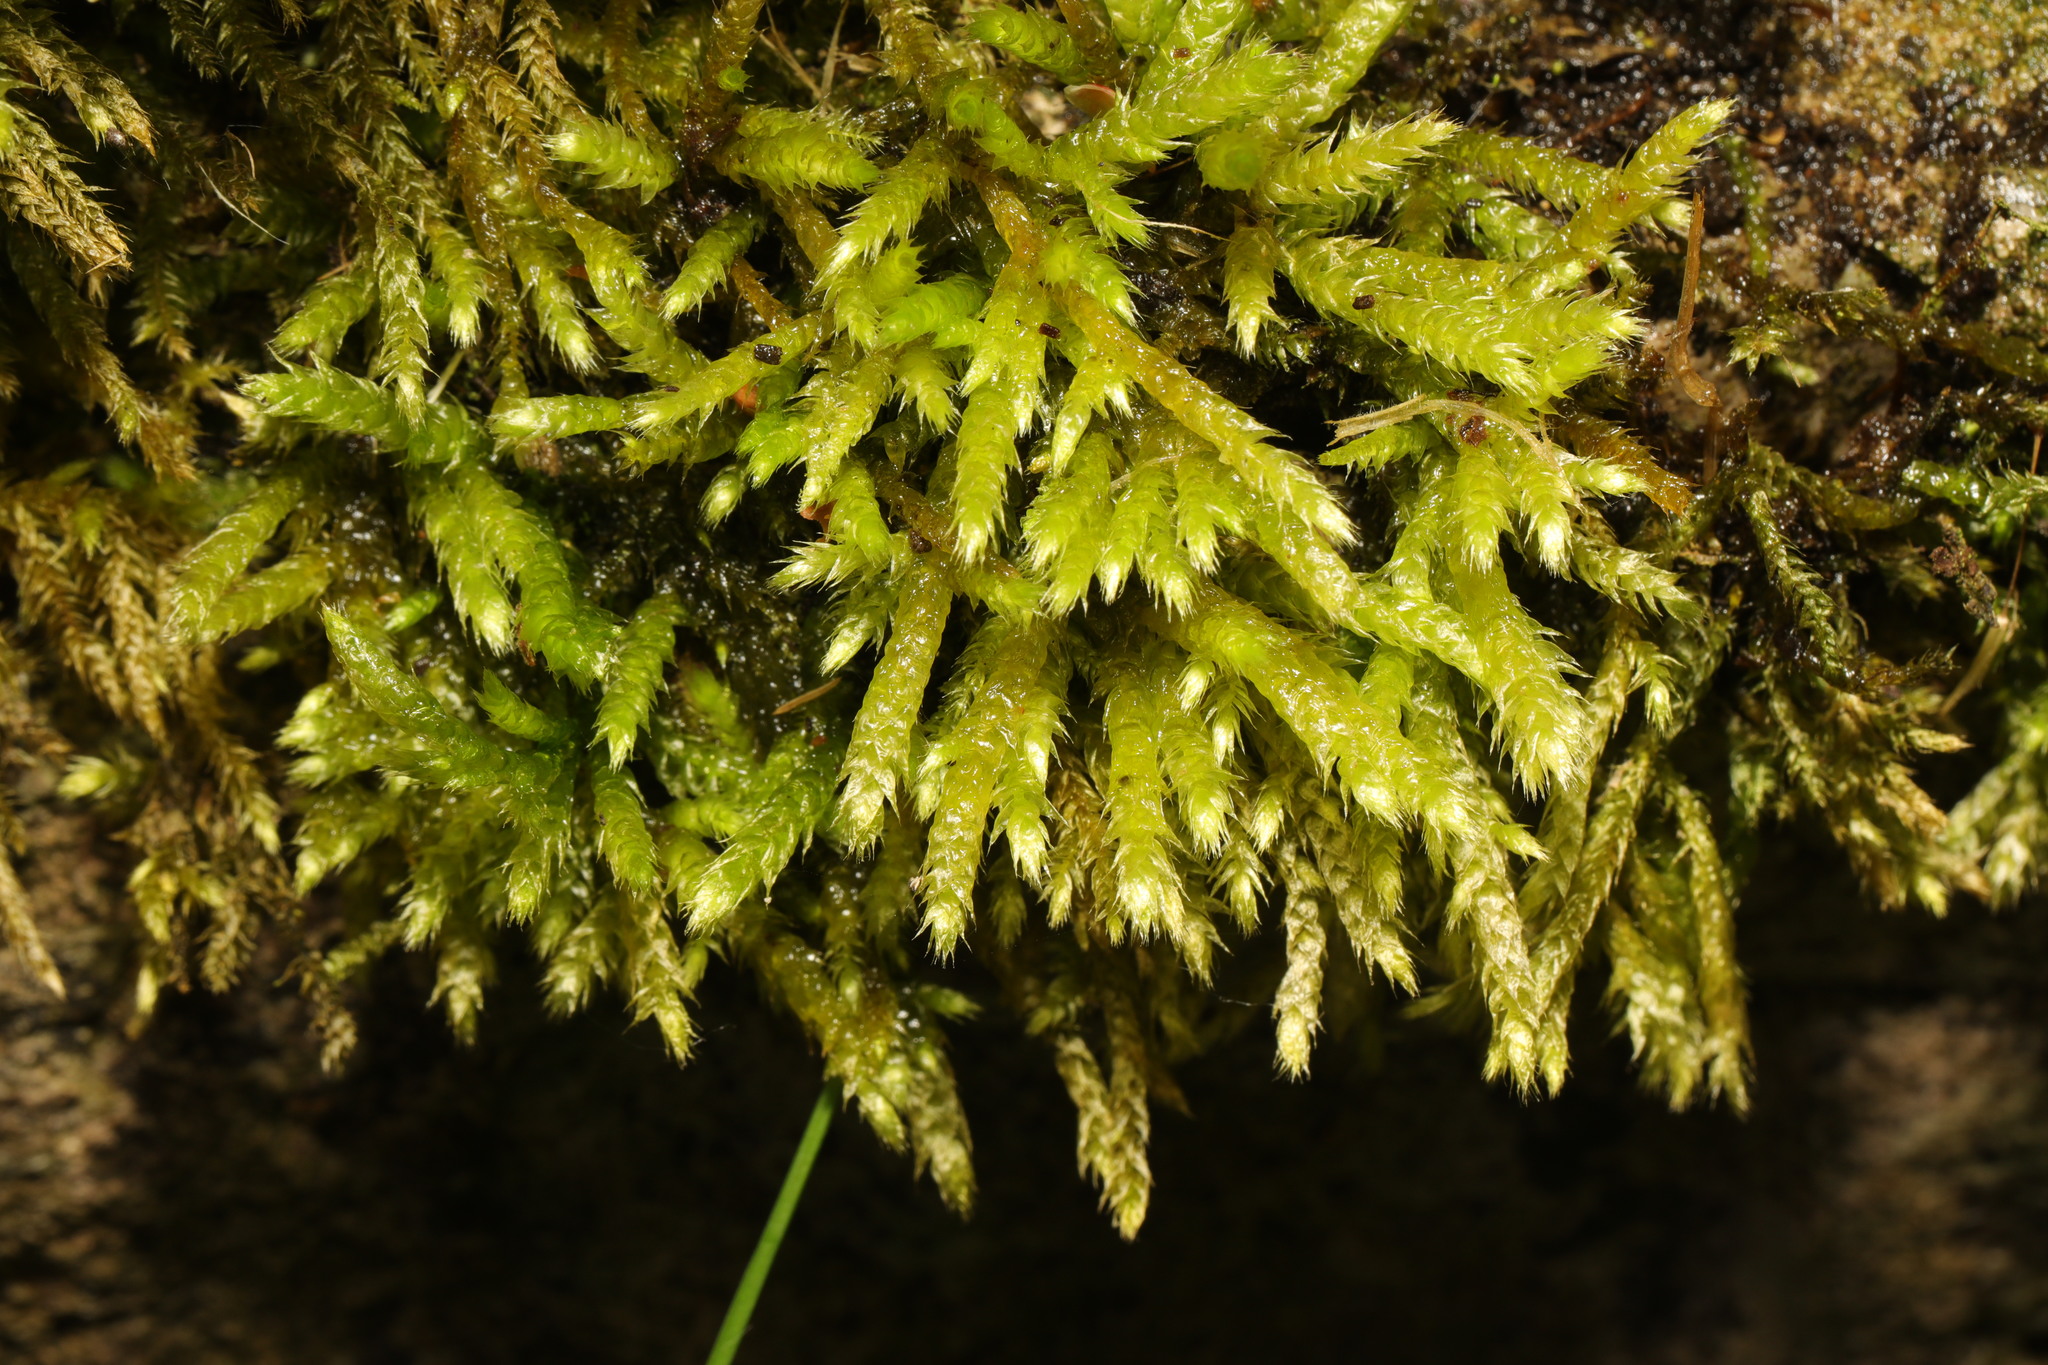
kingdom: Plantae
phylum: Bryophyta
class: Bryopsida
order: Hypnales
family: Hypnaceae
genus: Hypnum
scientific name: Hypnum cupressiforme
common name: Cypress-leaved plait-moss
